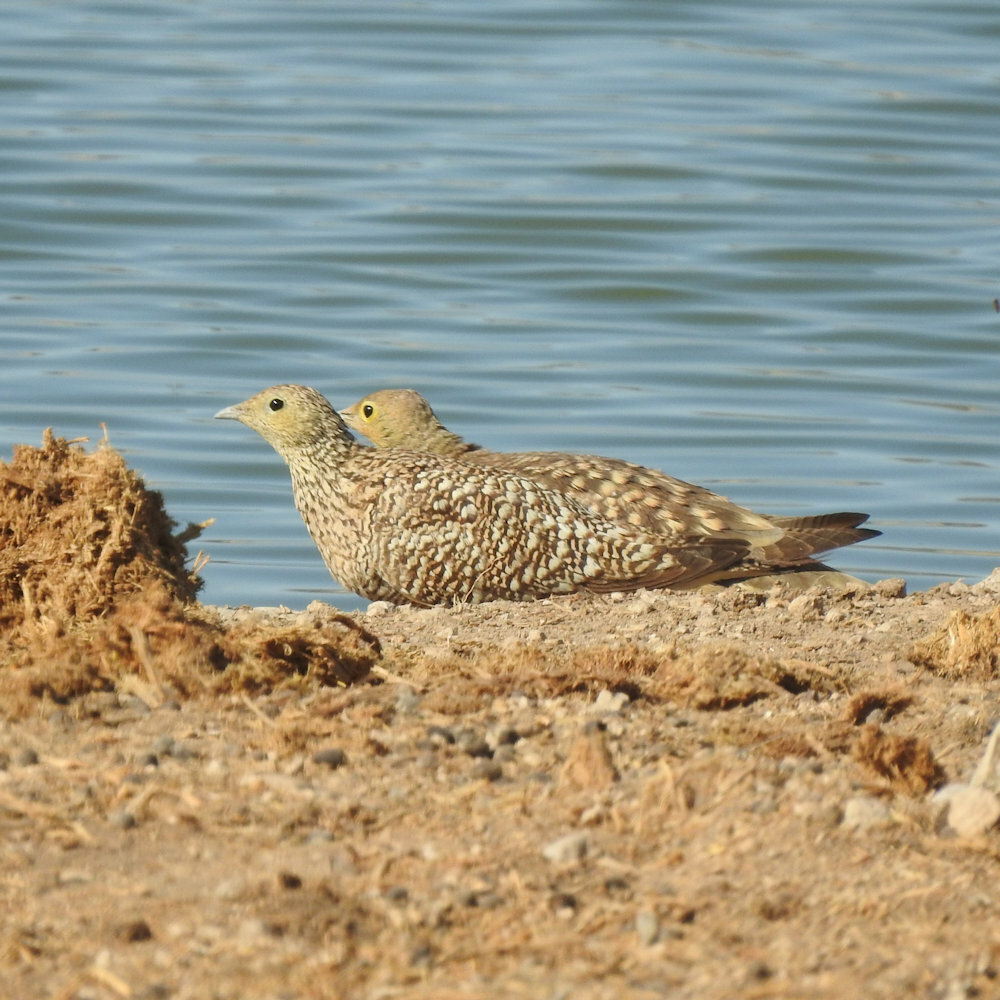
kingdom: Animalia
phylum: Chordata
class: Aves
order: Pteroclidiformes
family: Pteroclididae
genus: Pterocles
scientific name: Pterocles namaqua
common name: Namaqua sandgrouse
